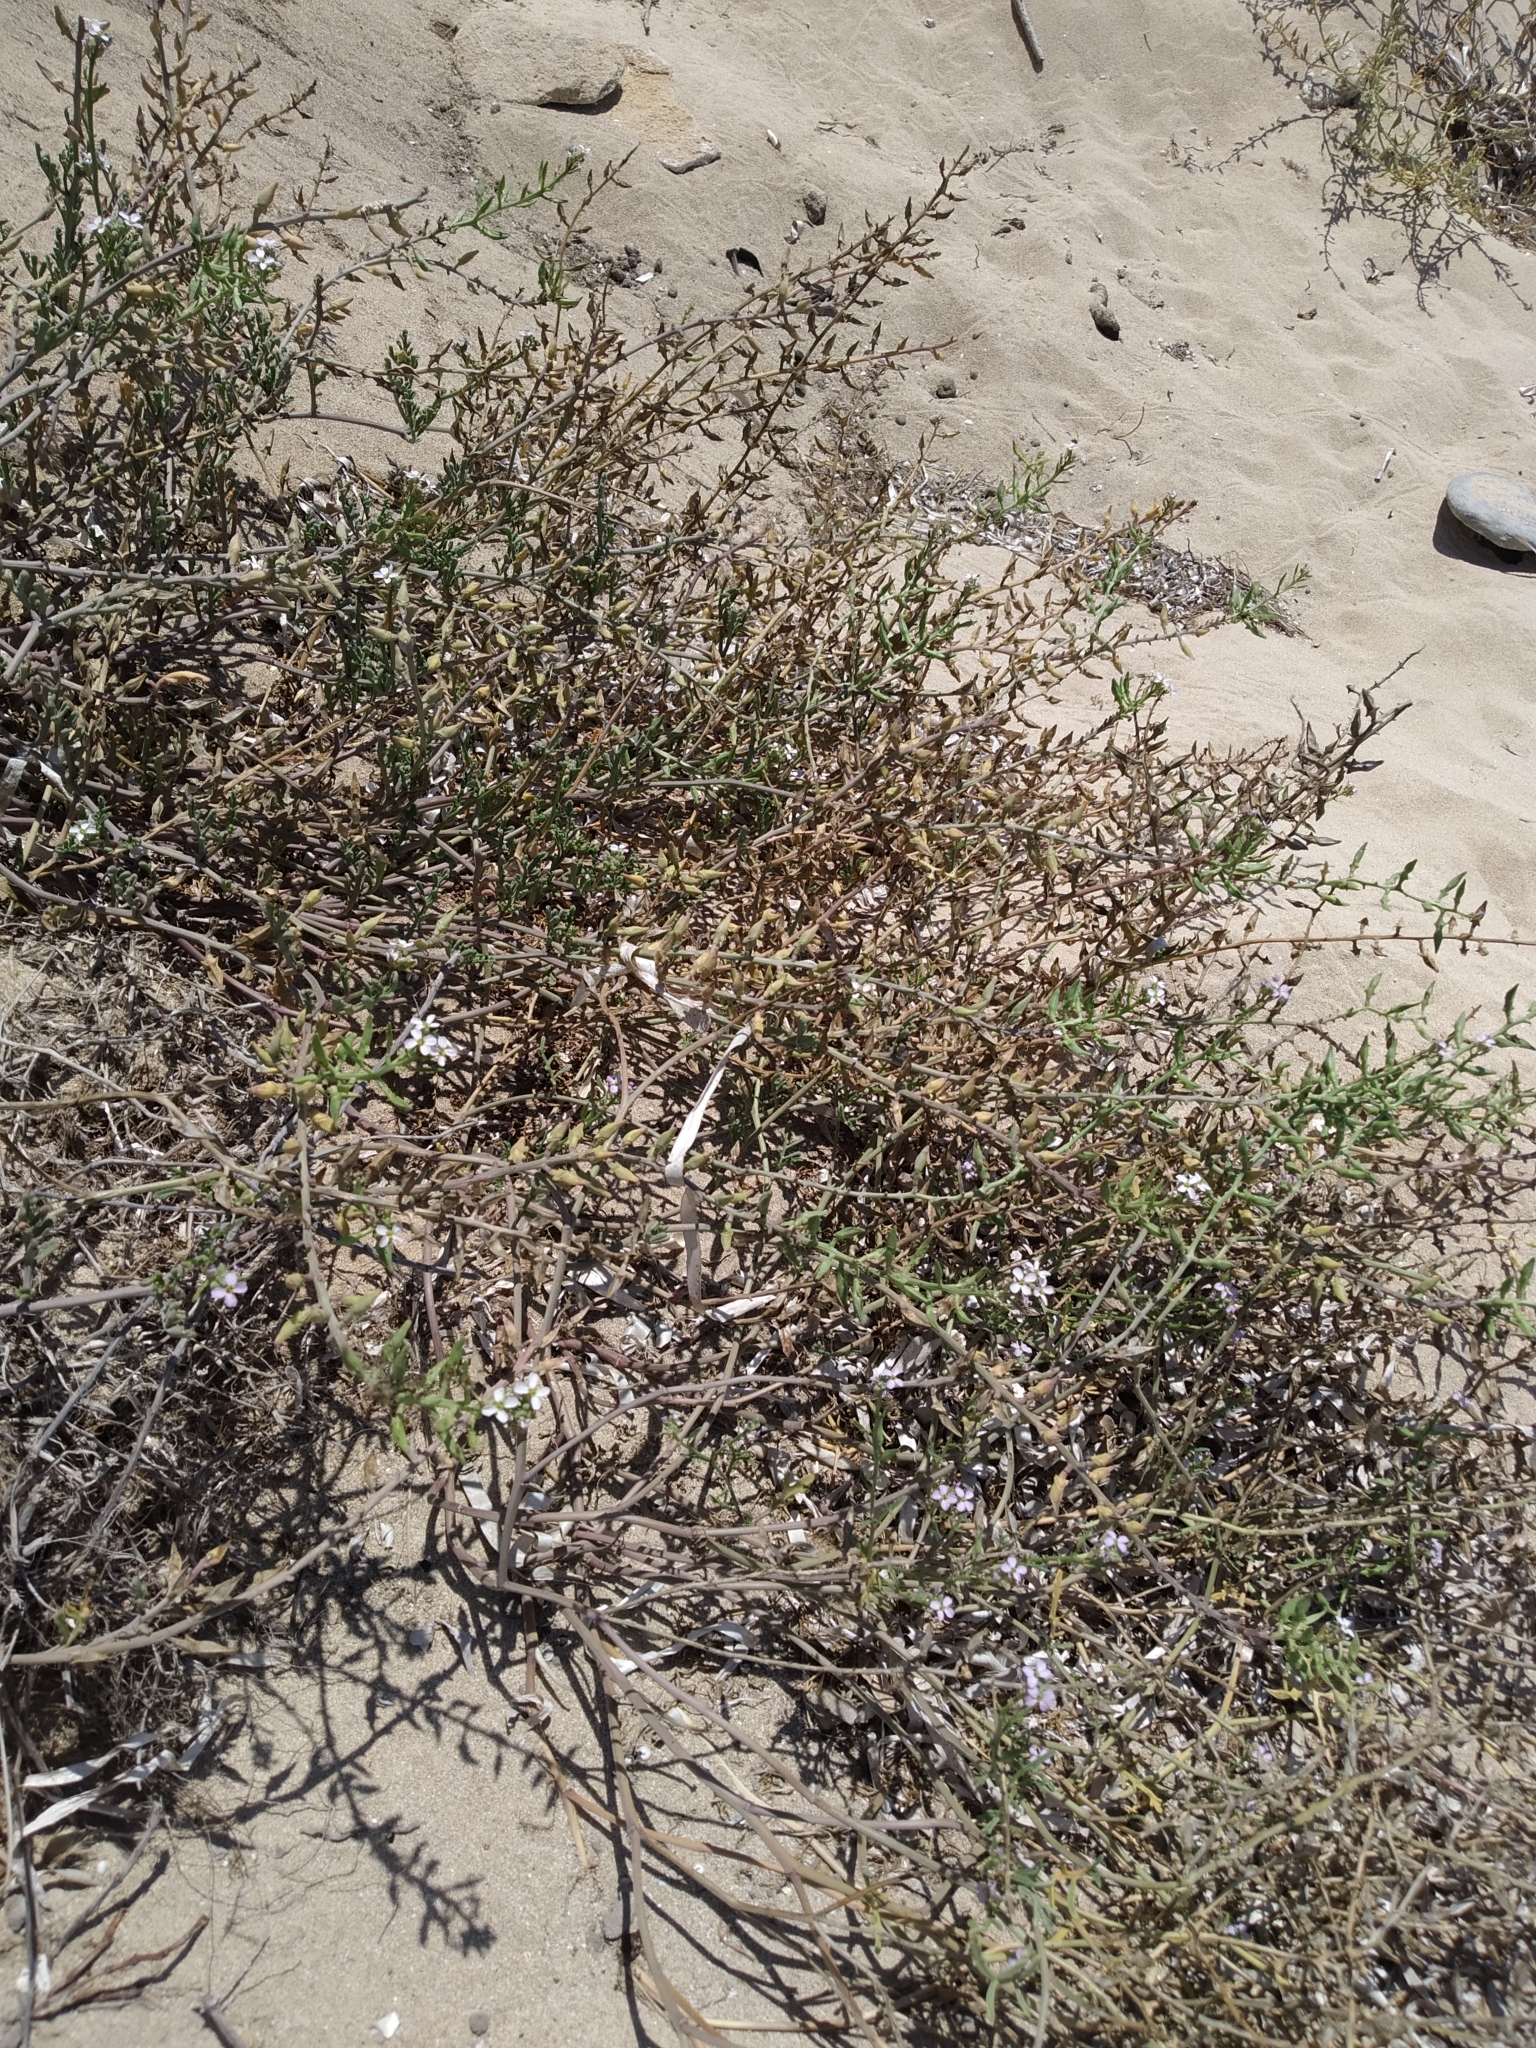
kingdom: Plantae
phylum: Tracheophyta
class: Magnoliopsida
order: Brassicales
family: Brassicaceae
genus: Cakile
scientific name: Cakile maritima
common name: Sea rocket
